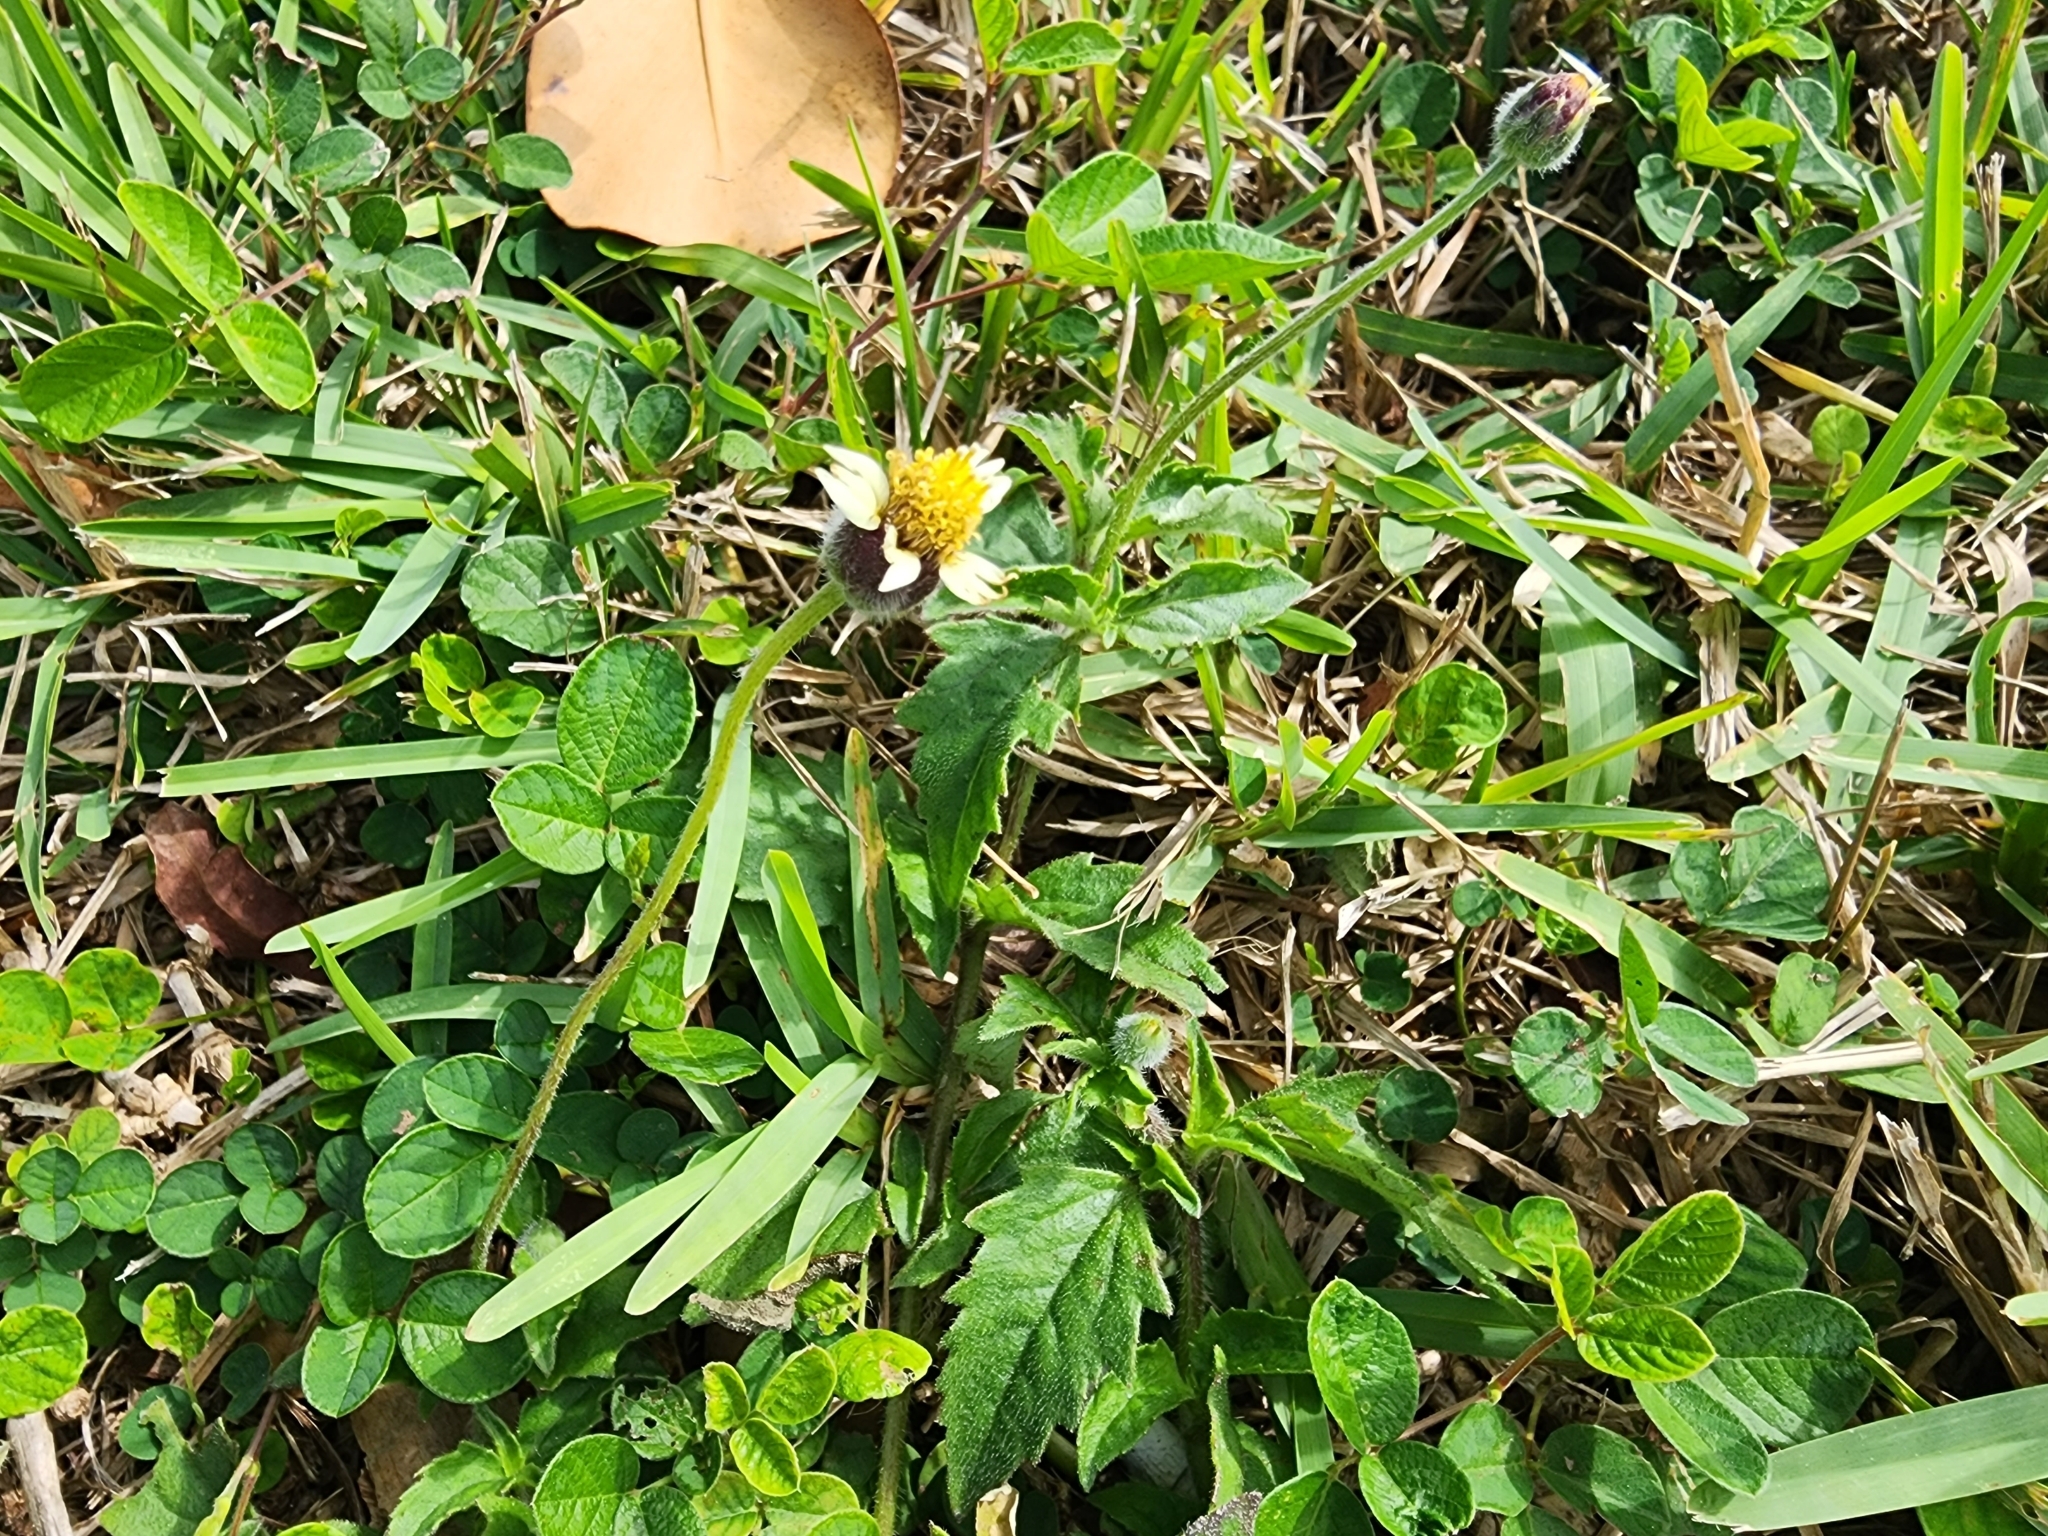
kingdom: Plantae
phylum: Tracheophyta
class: Magnoliopsida
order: Asterales
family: Asteraceae
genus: Tridax
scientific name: Tridax procumbens
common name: Coatbuttons
